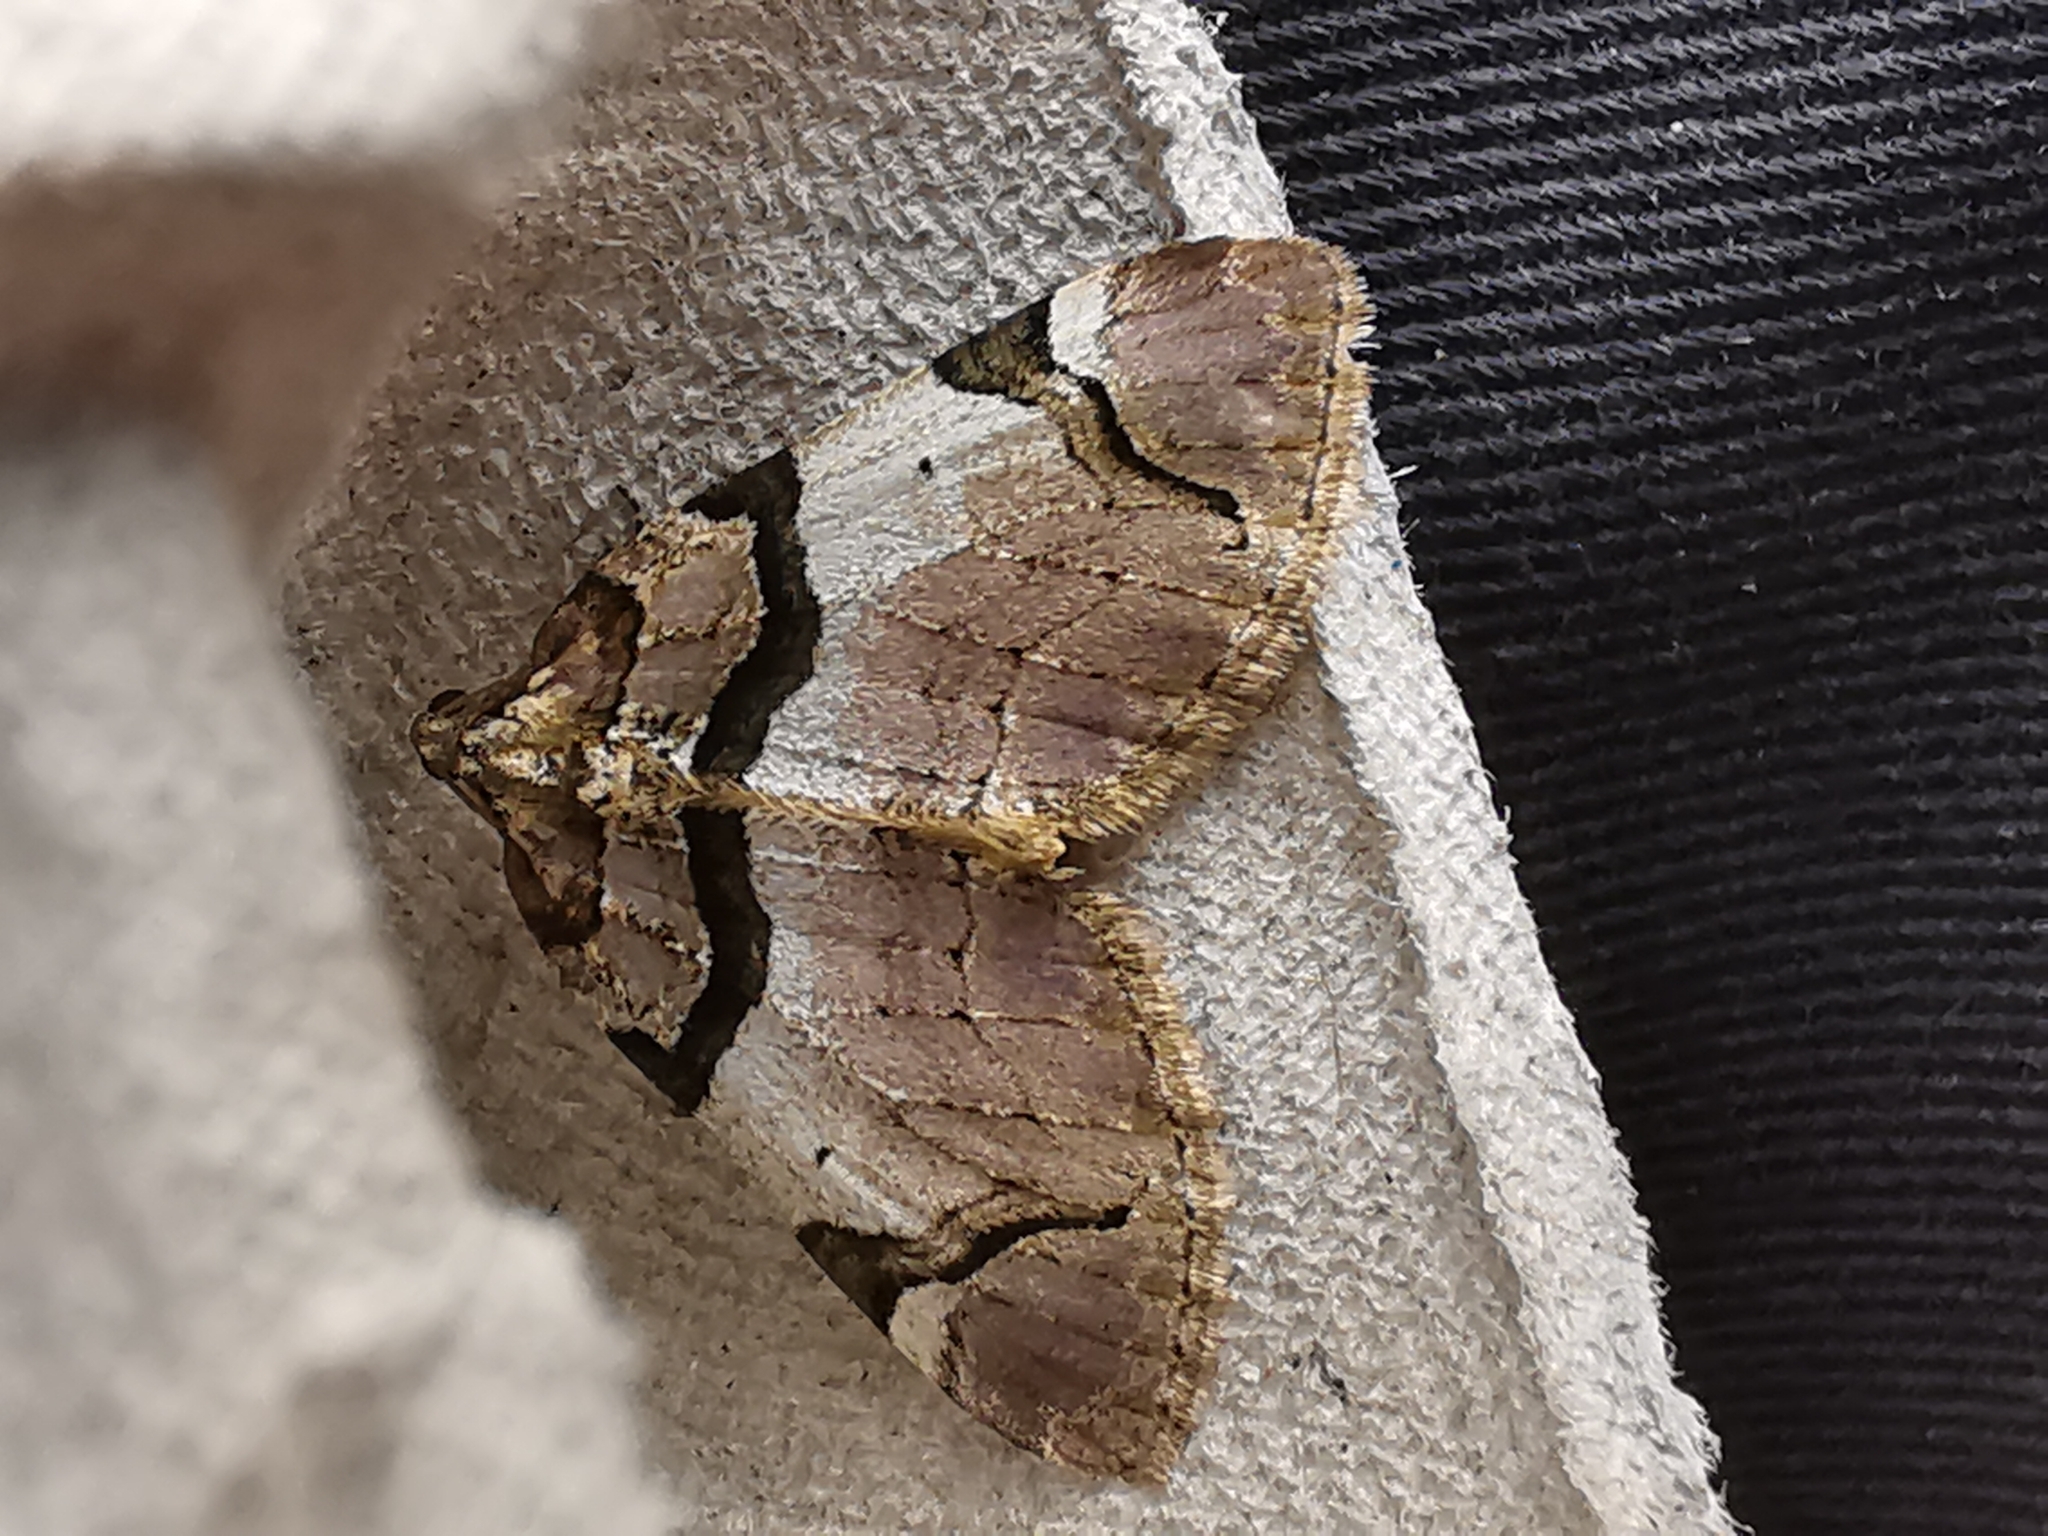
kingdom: Animalia
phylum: Arthropoda
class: Insecta
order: Lepidoptera
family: Geometridae
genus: Anticlea
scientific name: Anticlea derivata
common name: Streamer
